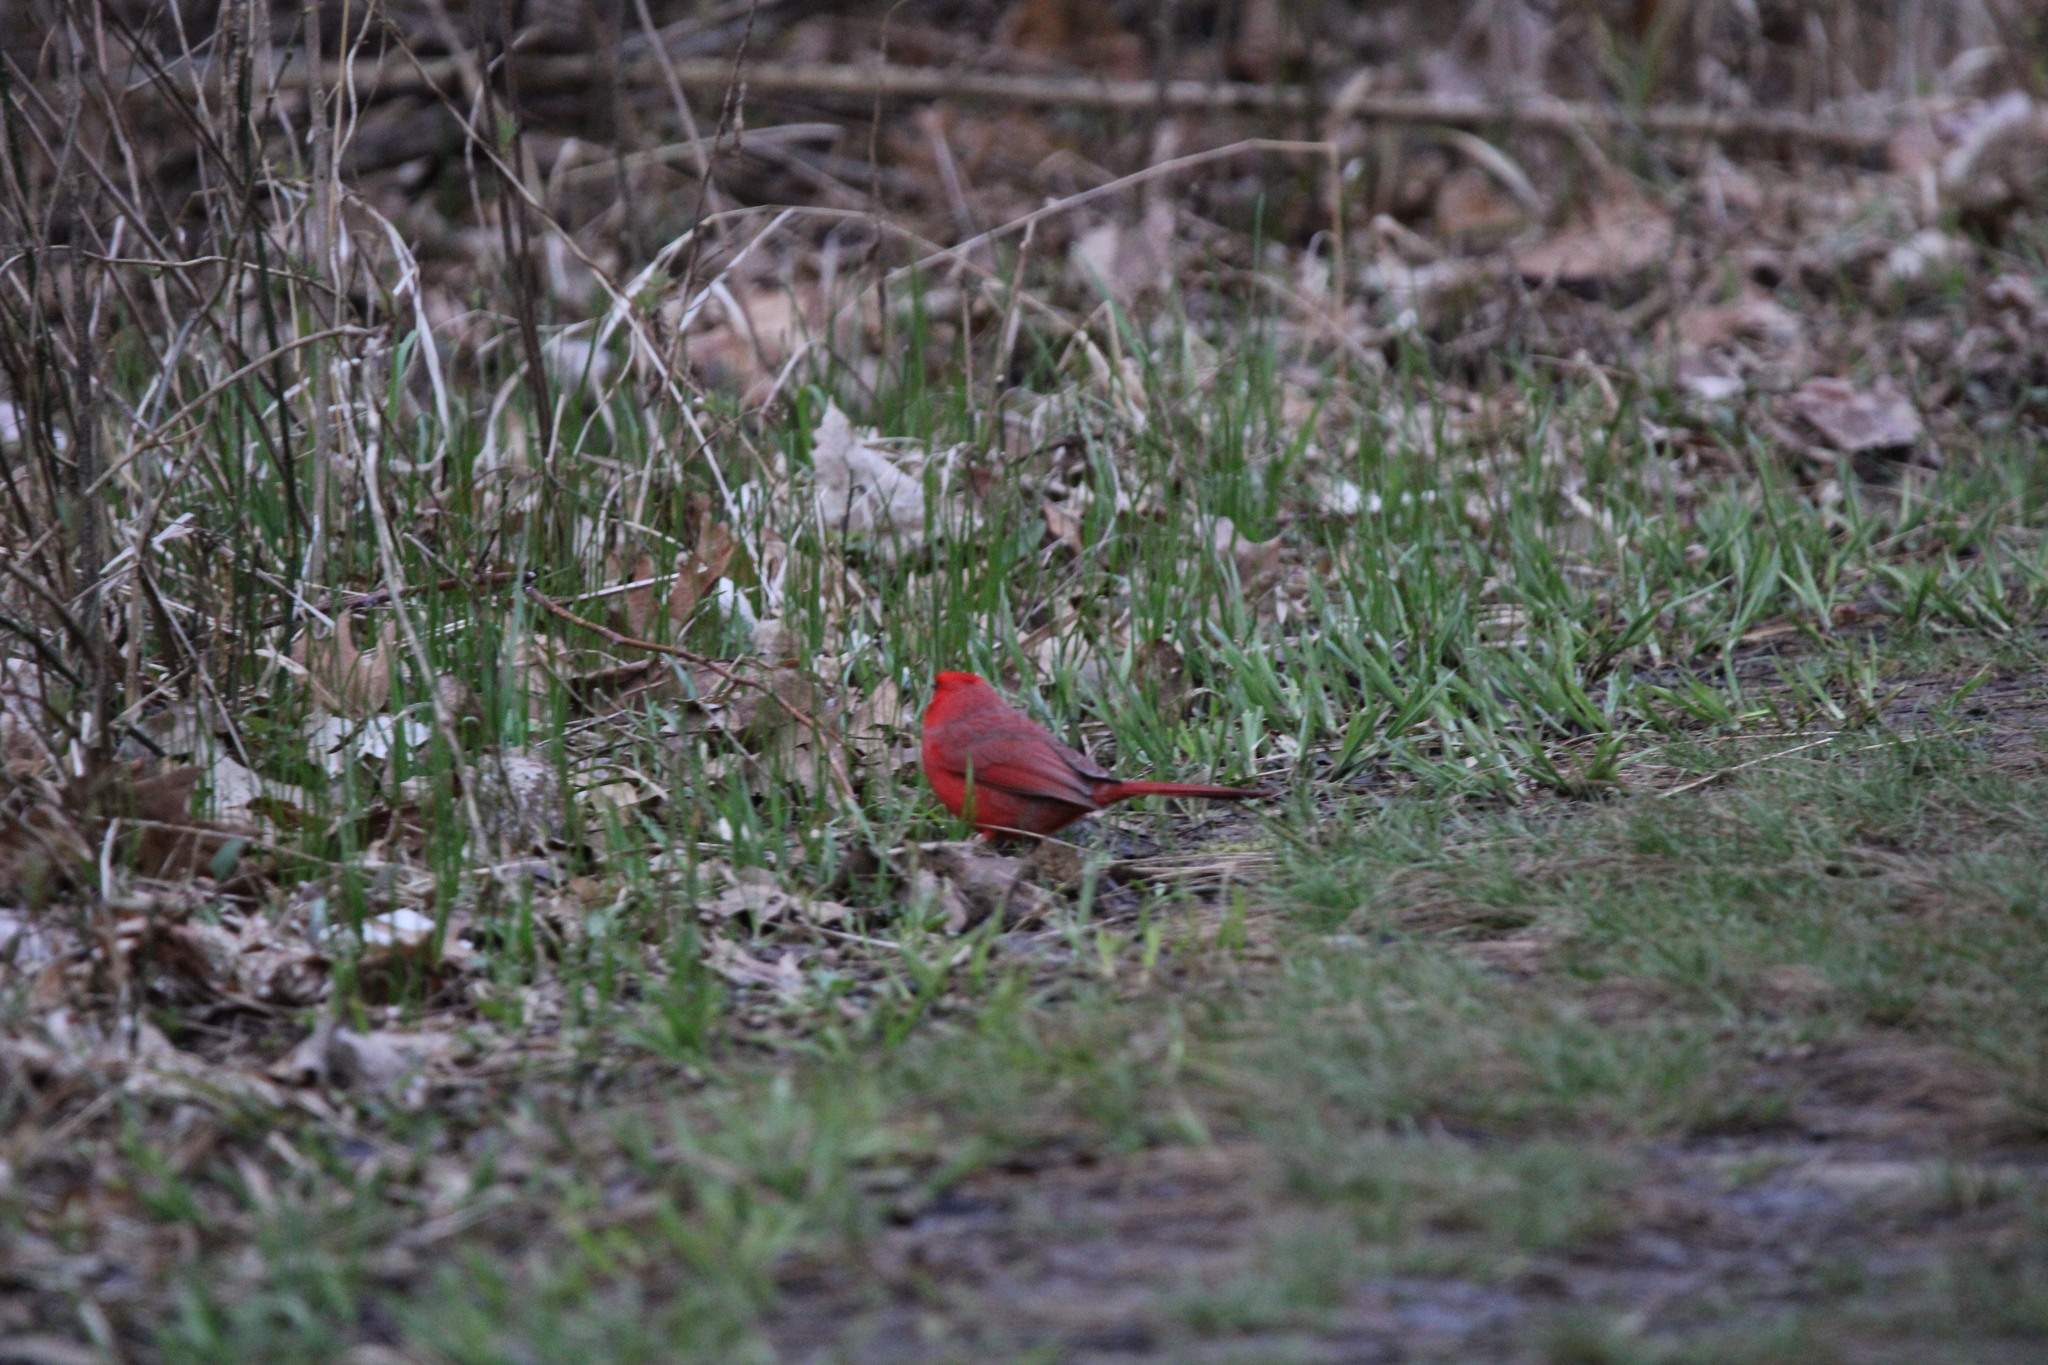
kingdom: Animalia
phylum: Chordata
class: Aves
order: Passeriformes
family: Cardinalidae
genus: Cardinalis
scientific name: Cardinalis cardinalis
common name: Northern cardinal
